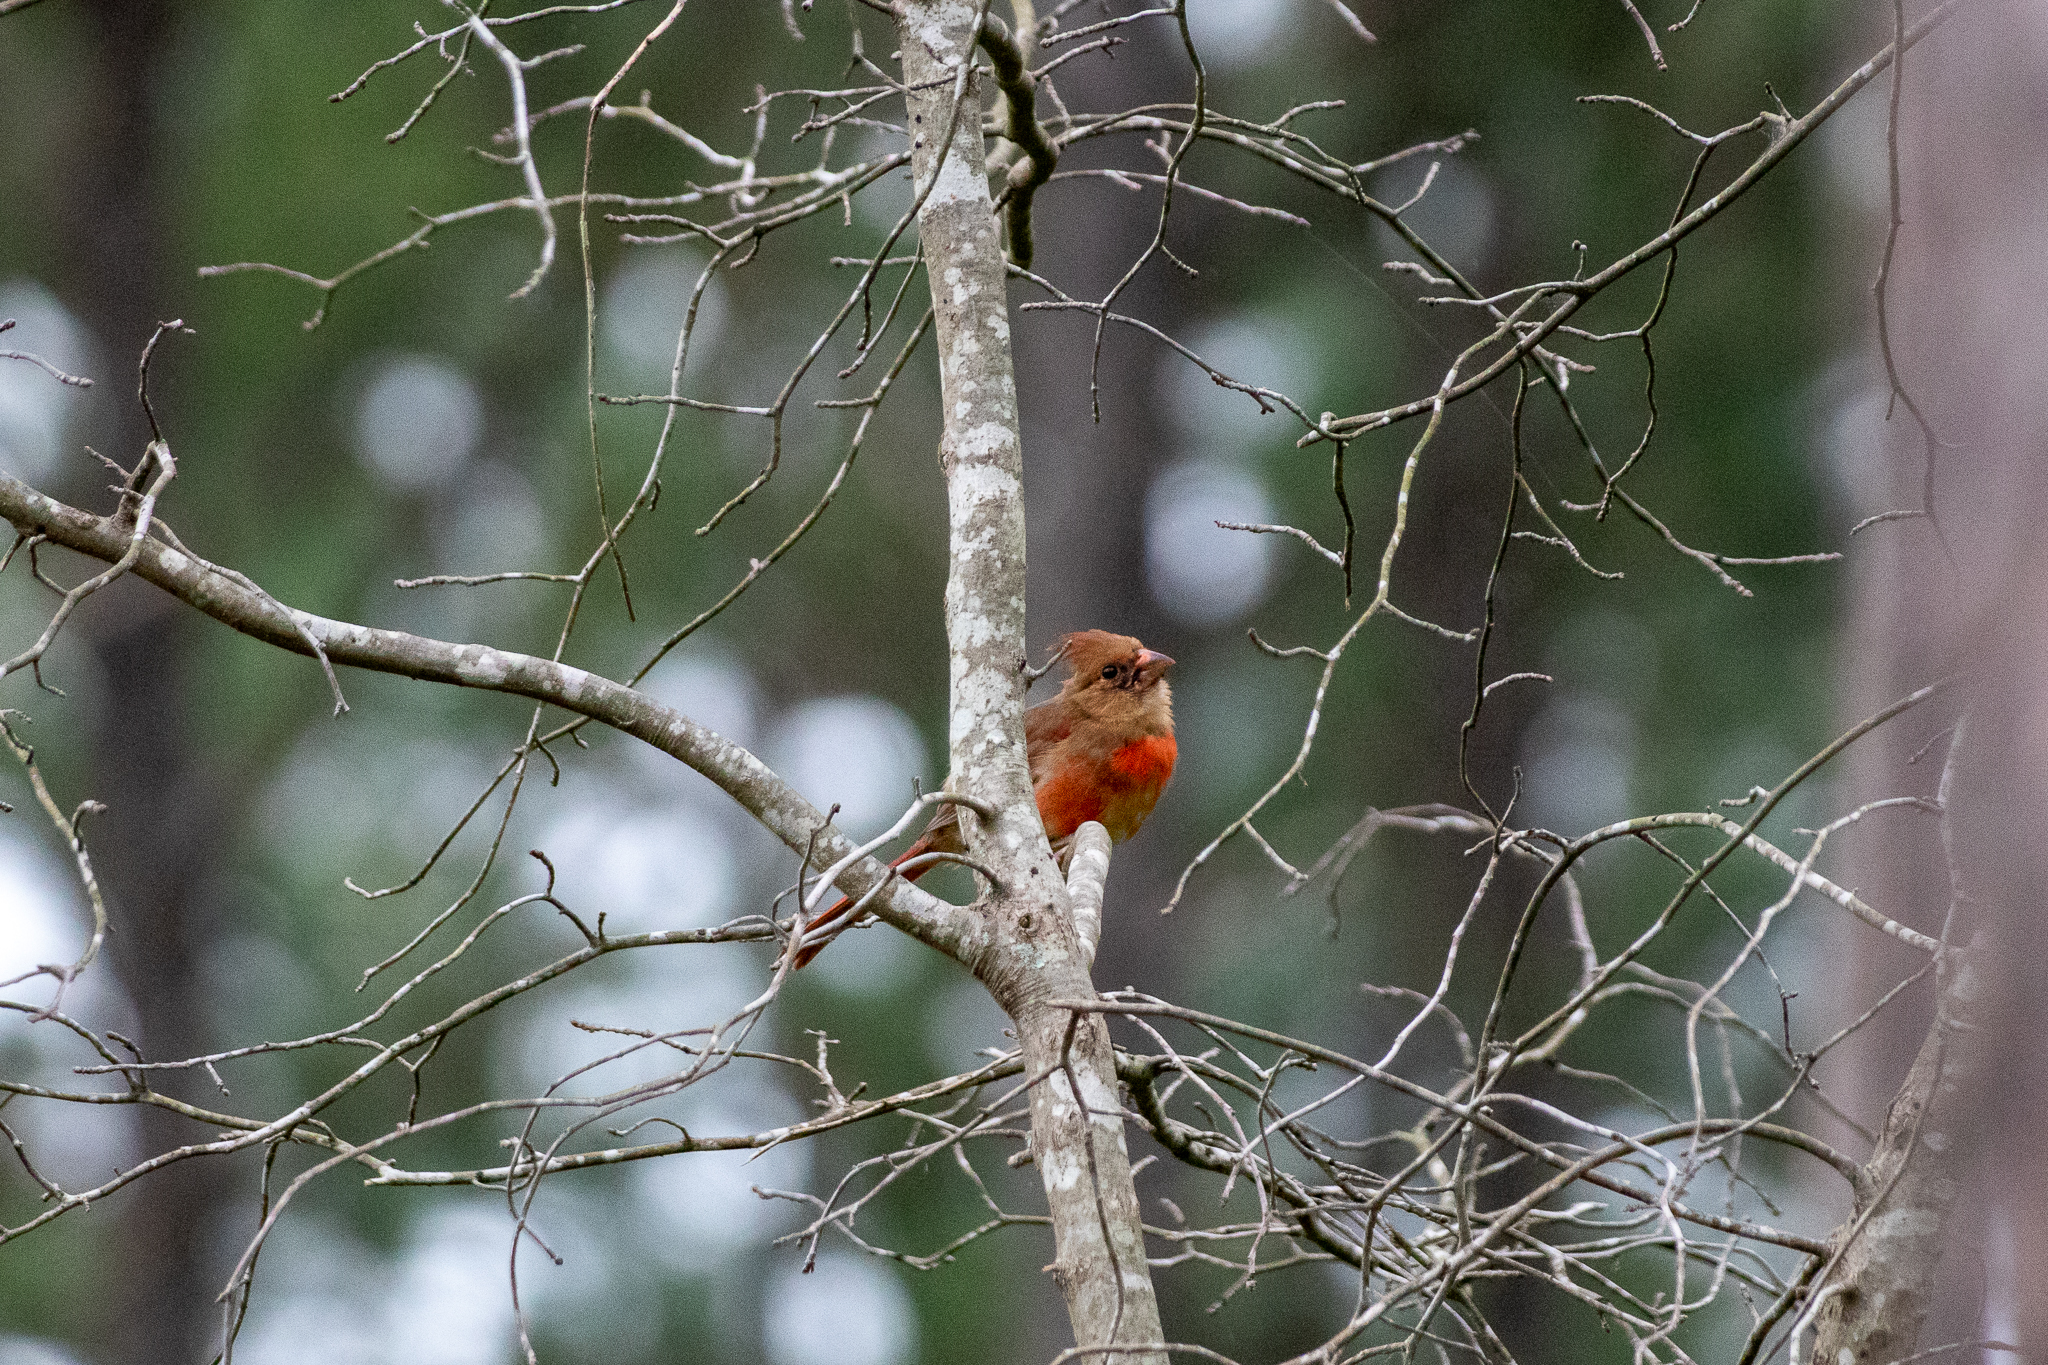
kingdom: Animalia
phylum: Chordata
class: Aves
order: Passeriformes
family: Cardinalidae
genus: Cardinalis
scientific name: Cardinalis cardinalis
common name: Northern cardinal
